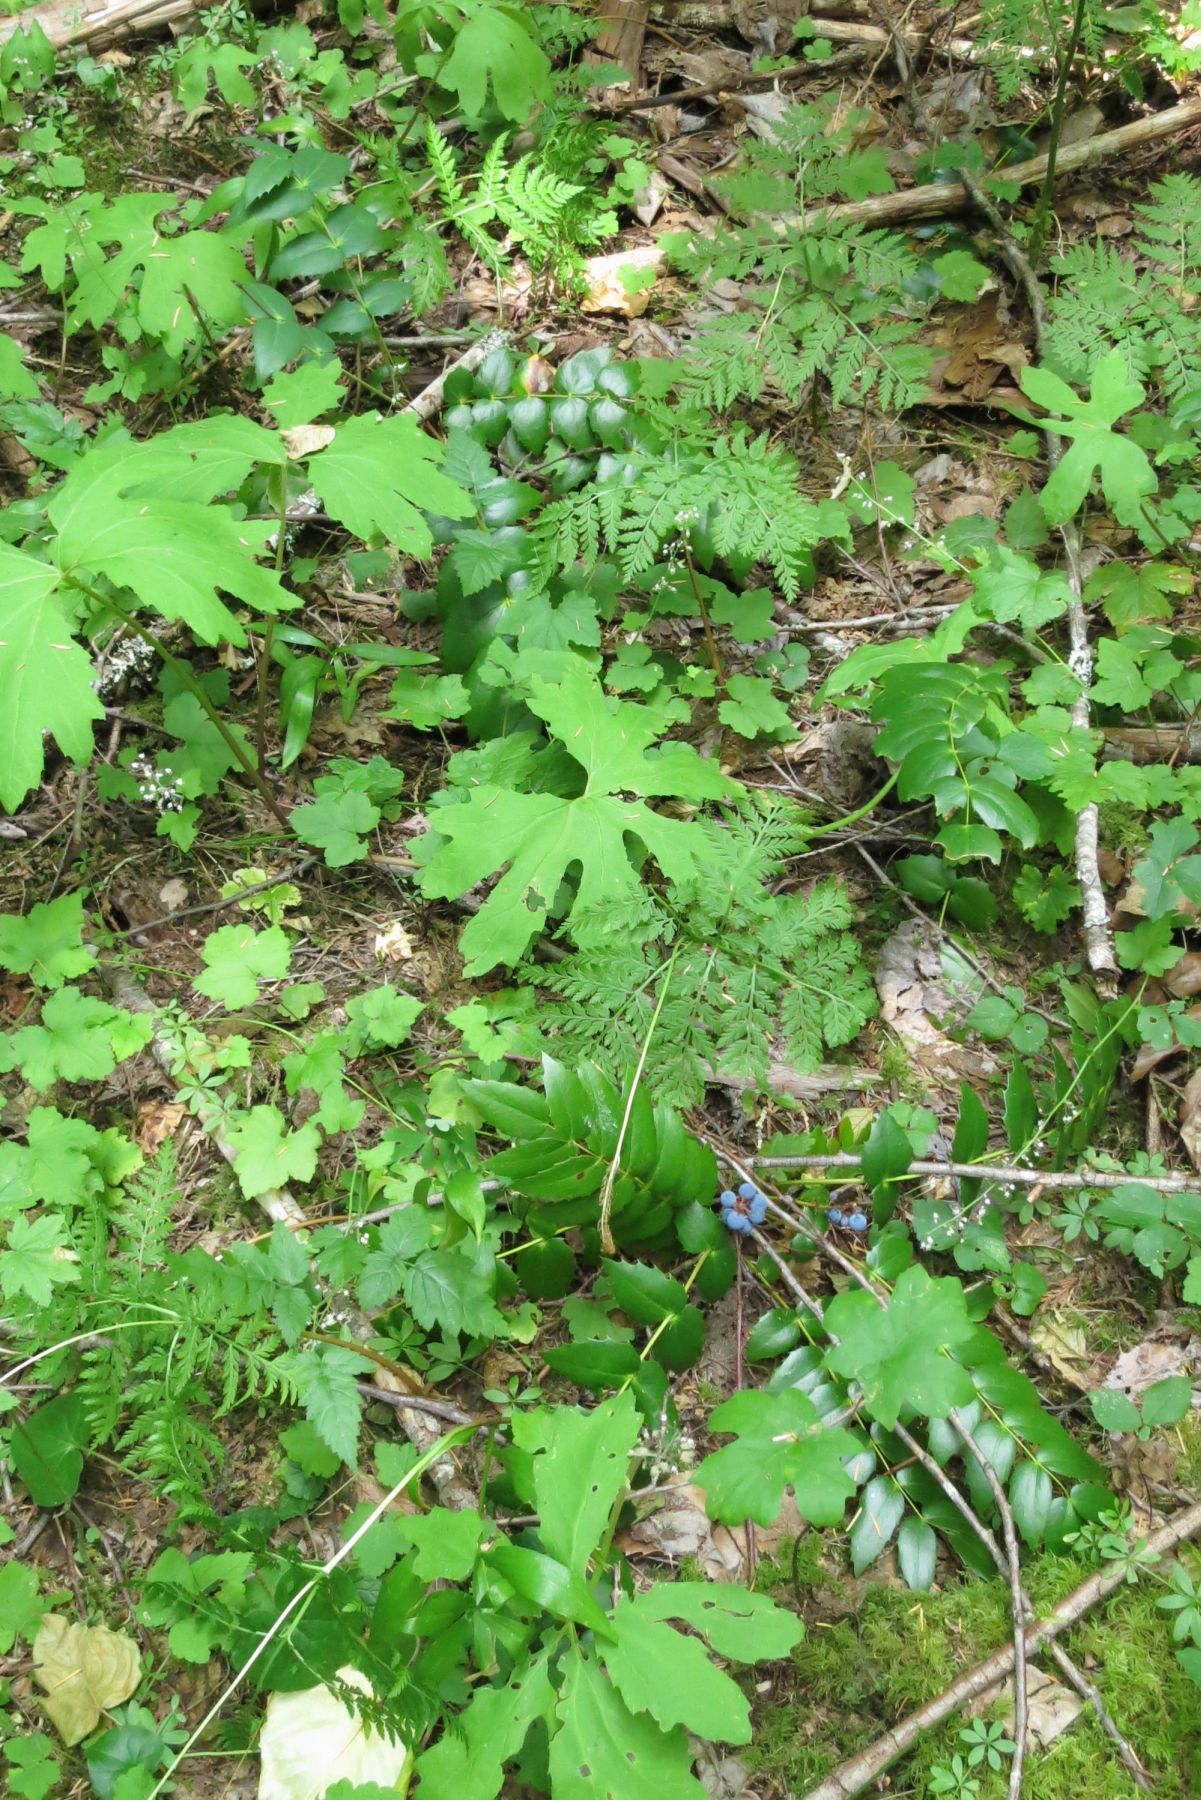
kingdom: Plantae
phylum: Tracheophyta
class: Polypodiopsida
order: Ophioglossales
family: Ophioglossaceae
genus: Botrypus
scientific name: Botrypus virginianus
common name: Common grapefern
